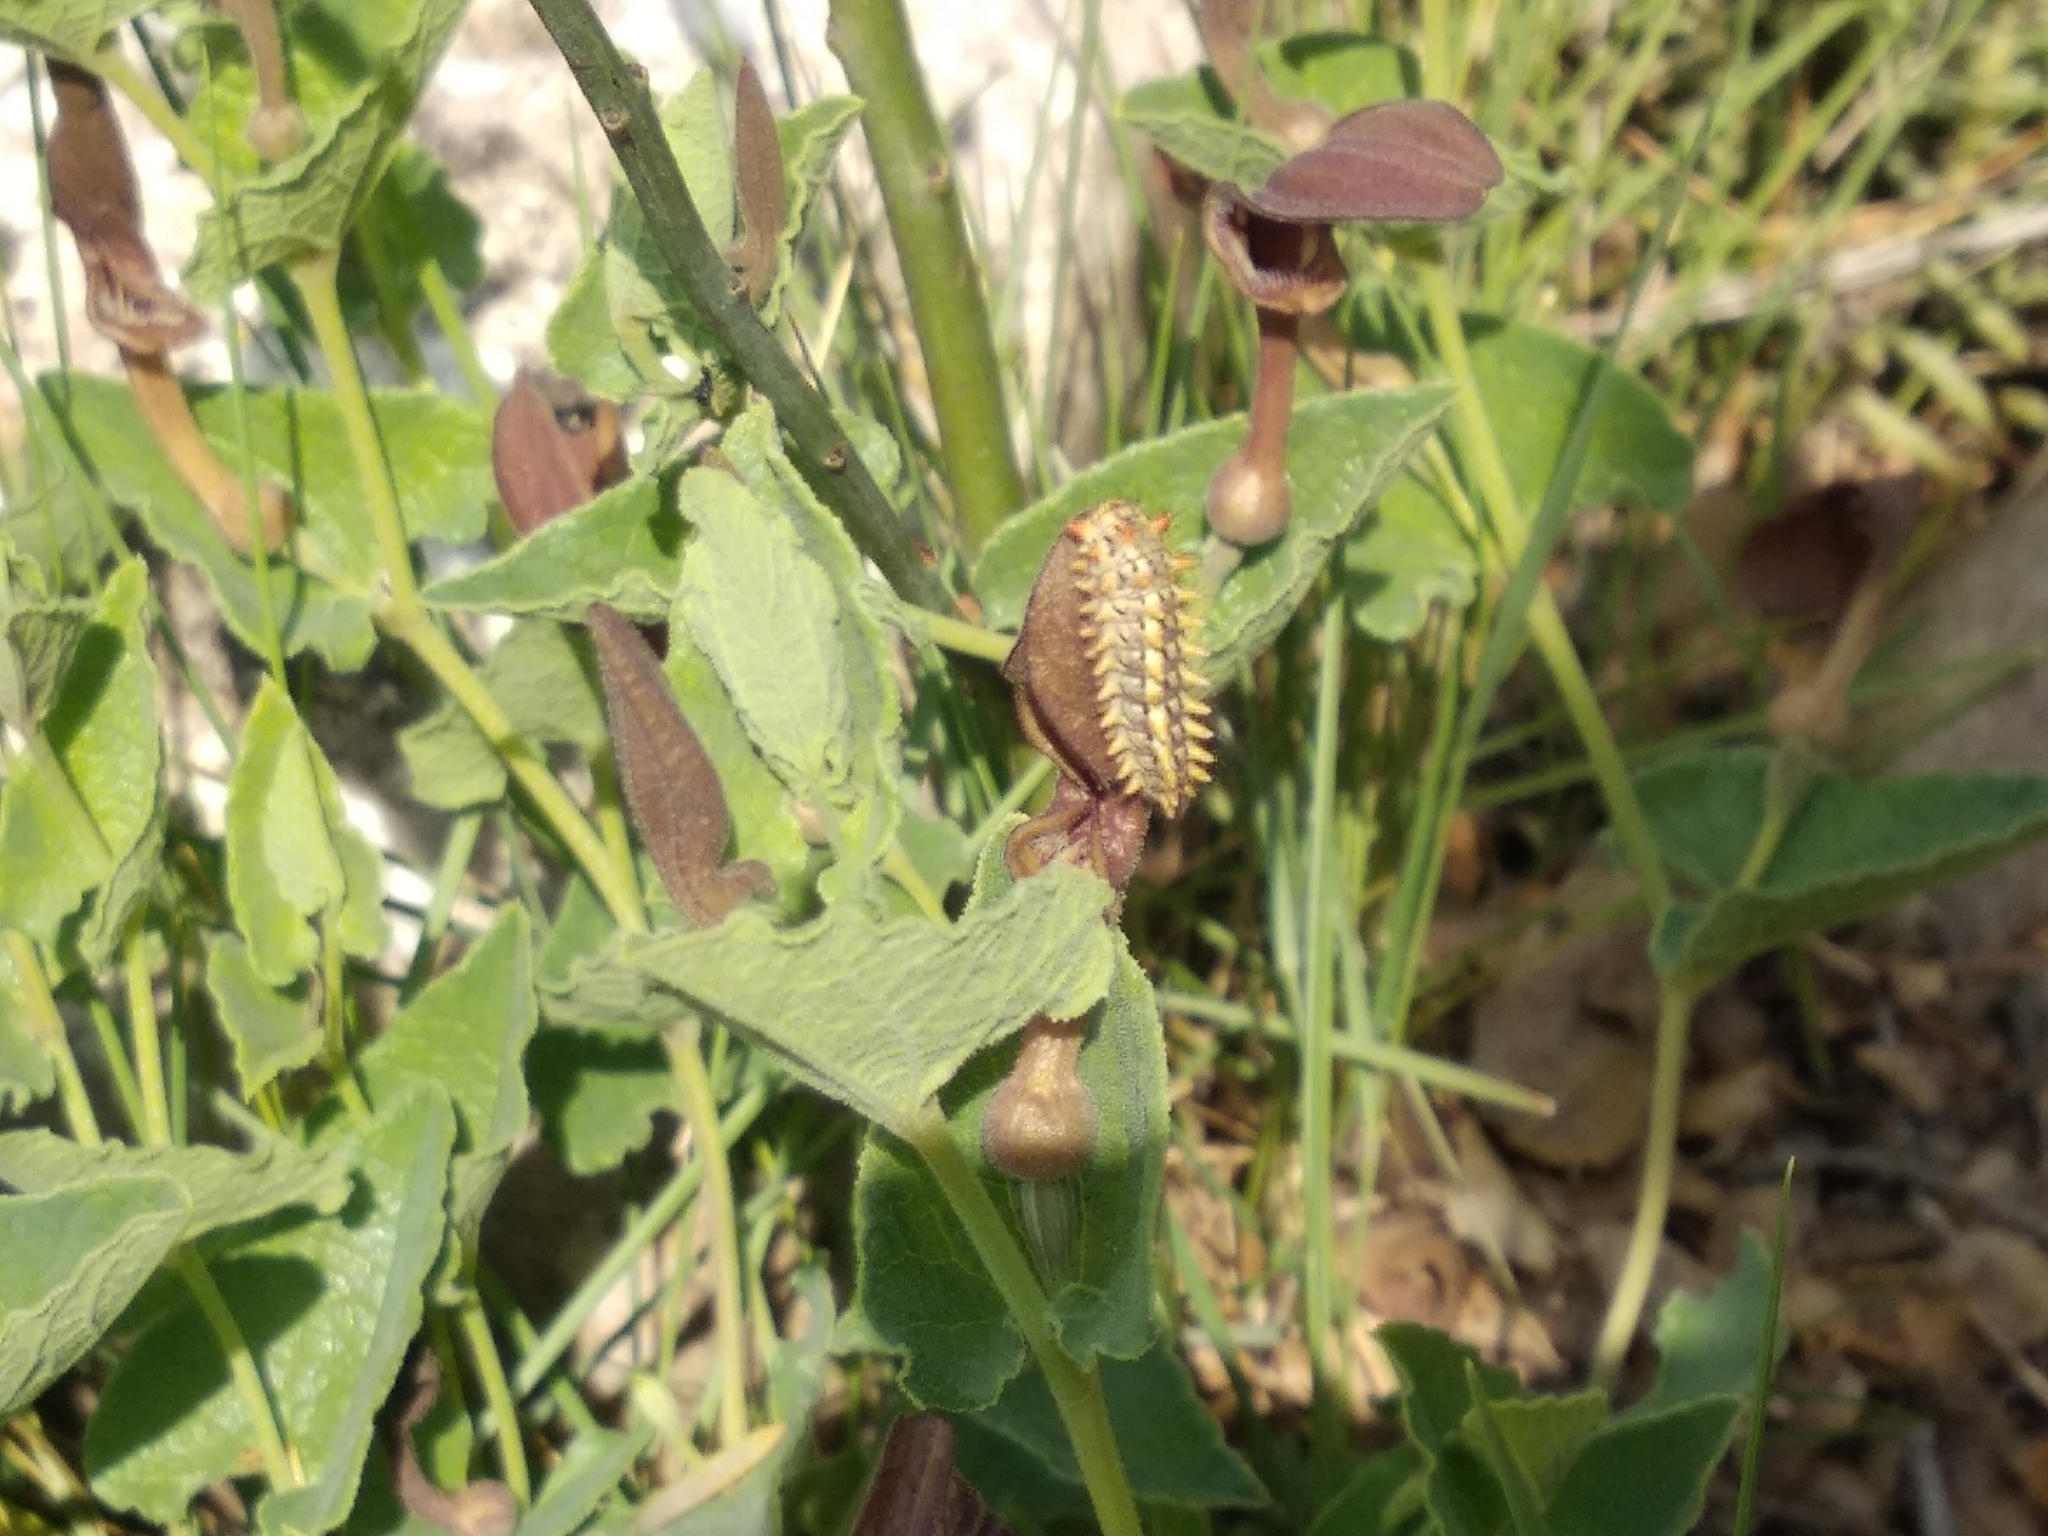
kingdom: Animalia
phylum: Arthropoda
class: Insecta
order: Lepidoptera
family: Papilionidae
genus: Zerynthia
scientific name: Zerynthia rumina
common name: Spanish festoon
